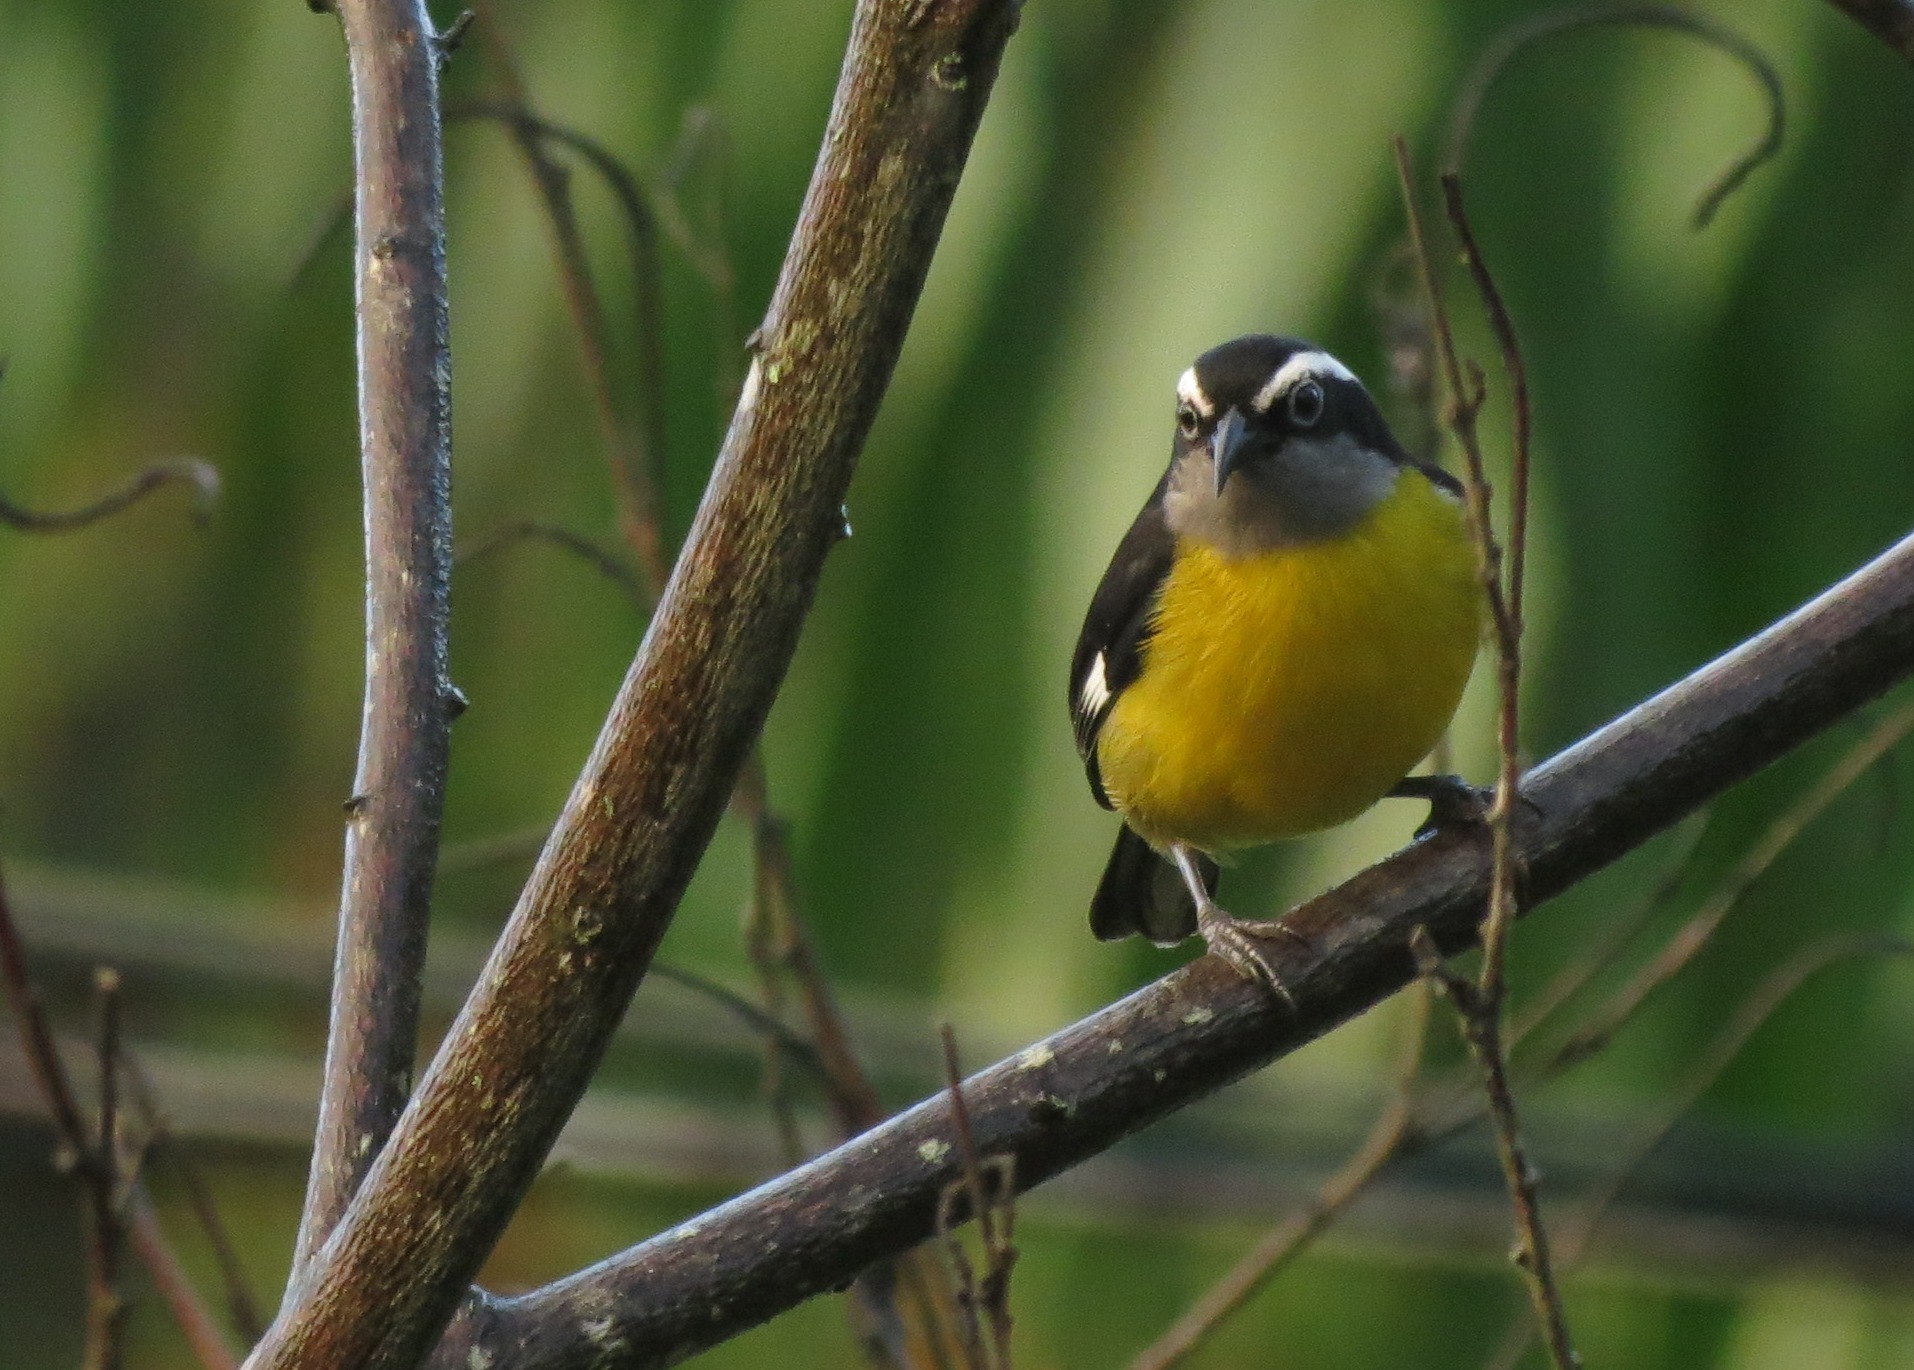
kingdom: Animalia
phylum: Chordata
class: Aves
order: Passeriformes
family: Thraupidae
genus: Coereba
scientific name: Coereba flaveola
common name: Bananaquit
